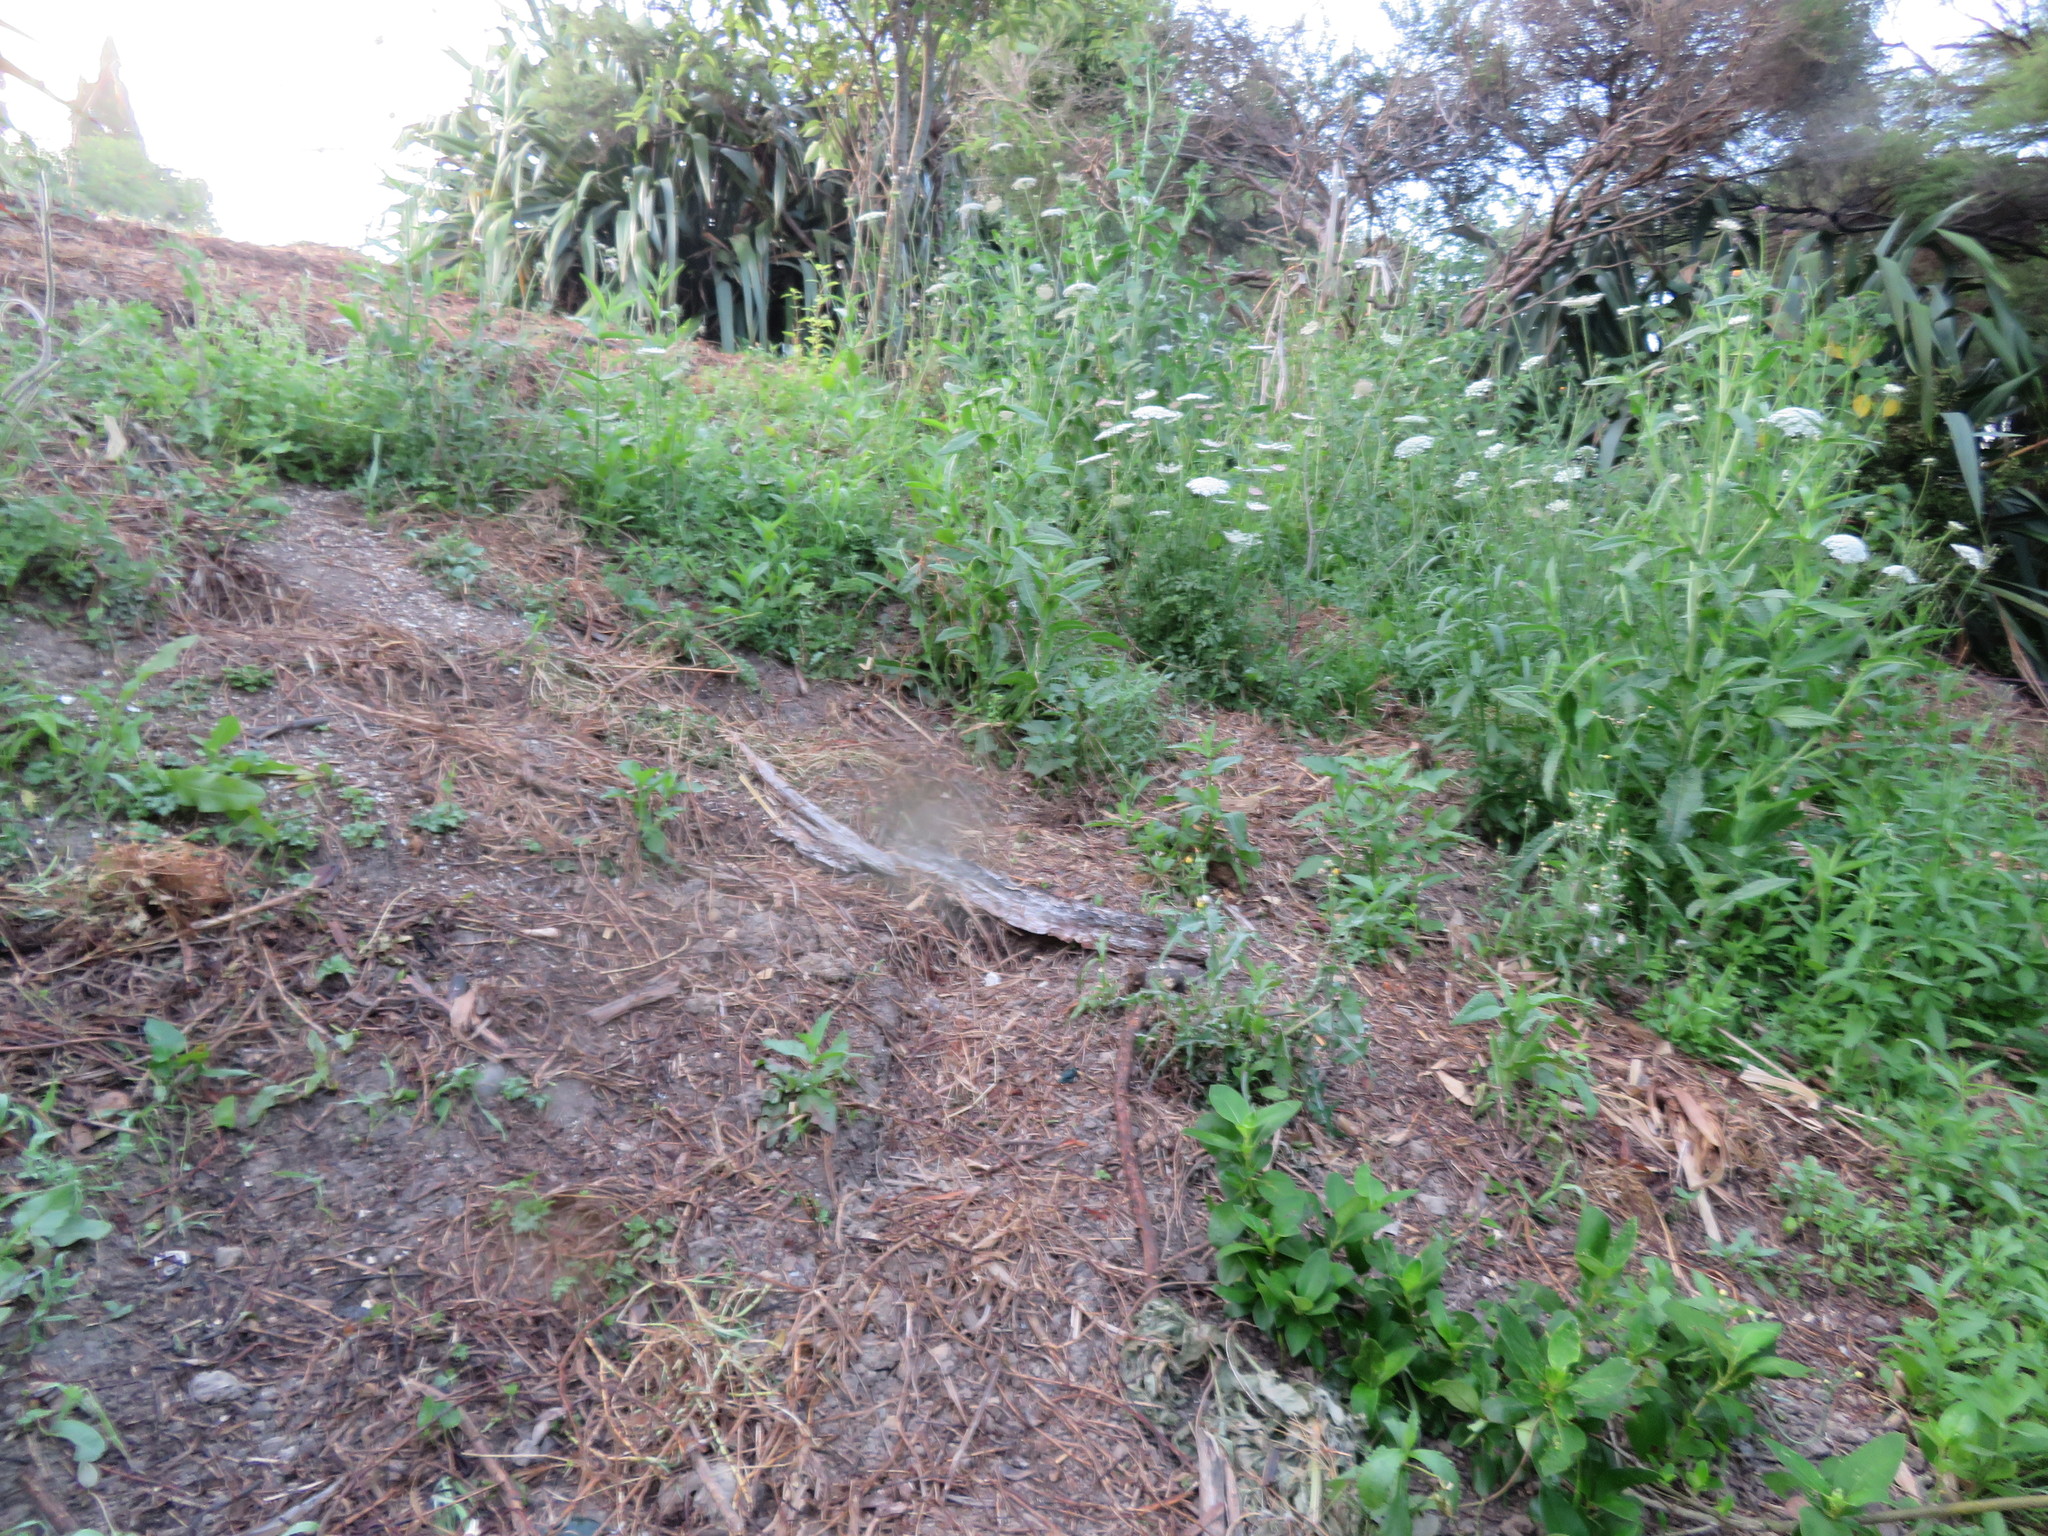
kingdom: Plantae
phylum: Tracheophyta
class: Magnoliopsida
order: Asterales
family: Asteraceae
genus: Sonchus
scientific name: Sonchus oleraceus
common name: Common sowthistle
